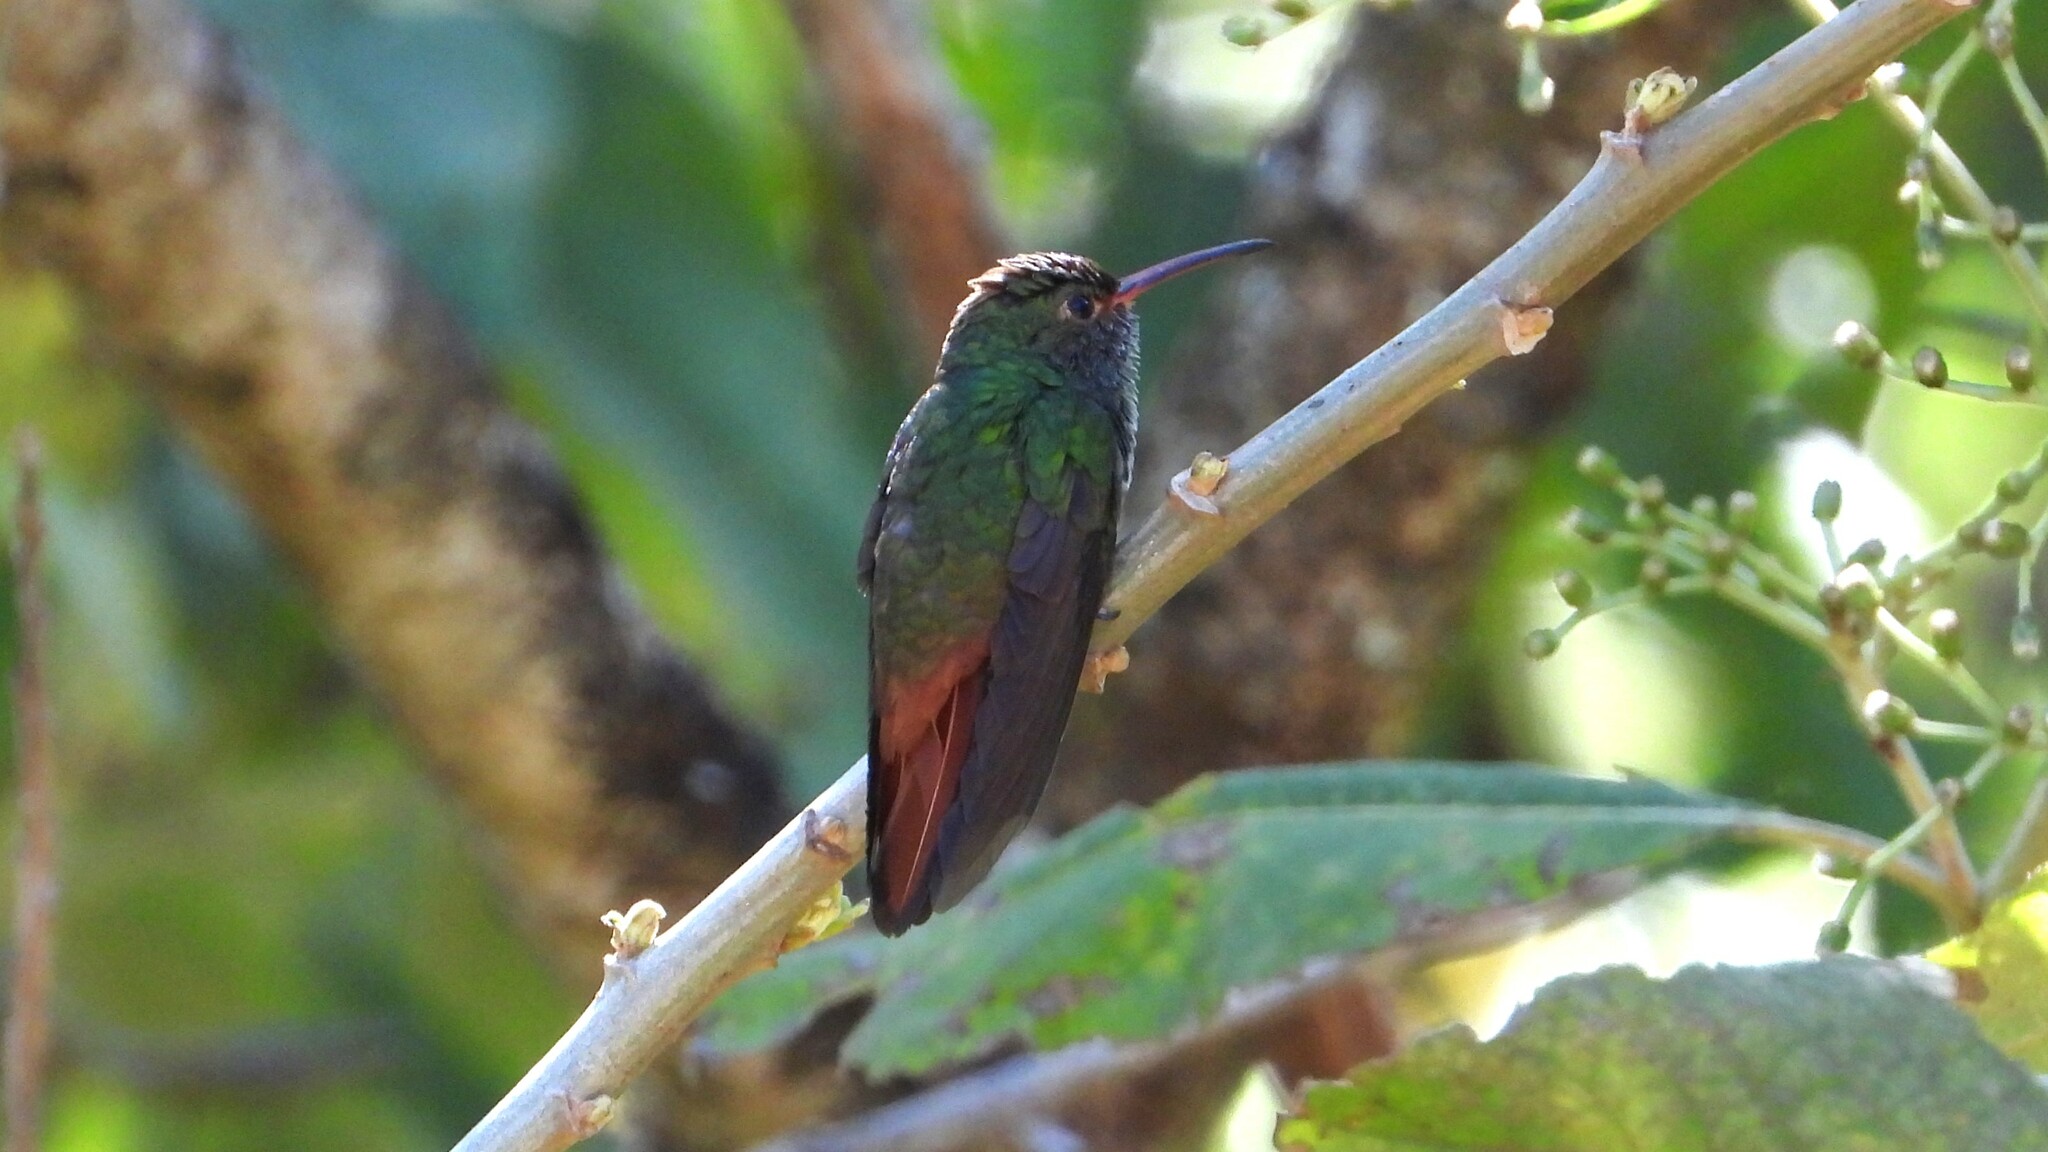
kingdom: Animalia
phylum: Chordata
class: Aves
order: Apodiformes
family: Trochilidae
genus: Amazilia
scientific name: Amazilia tzacatl
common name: Rufous-tailed hummingbird
